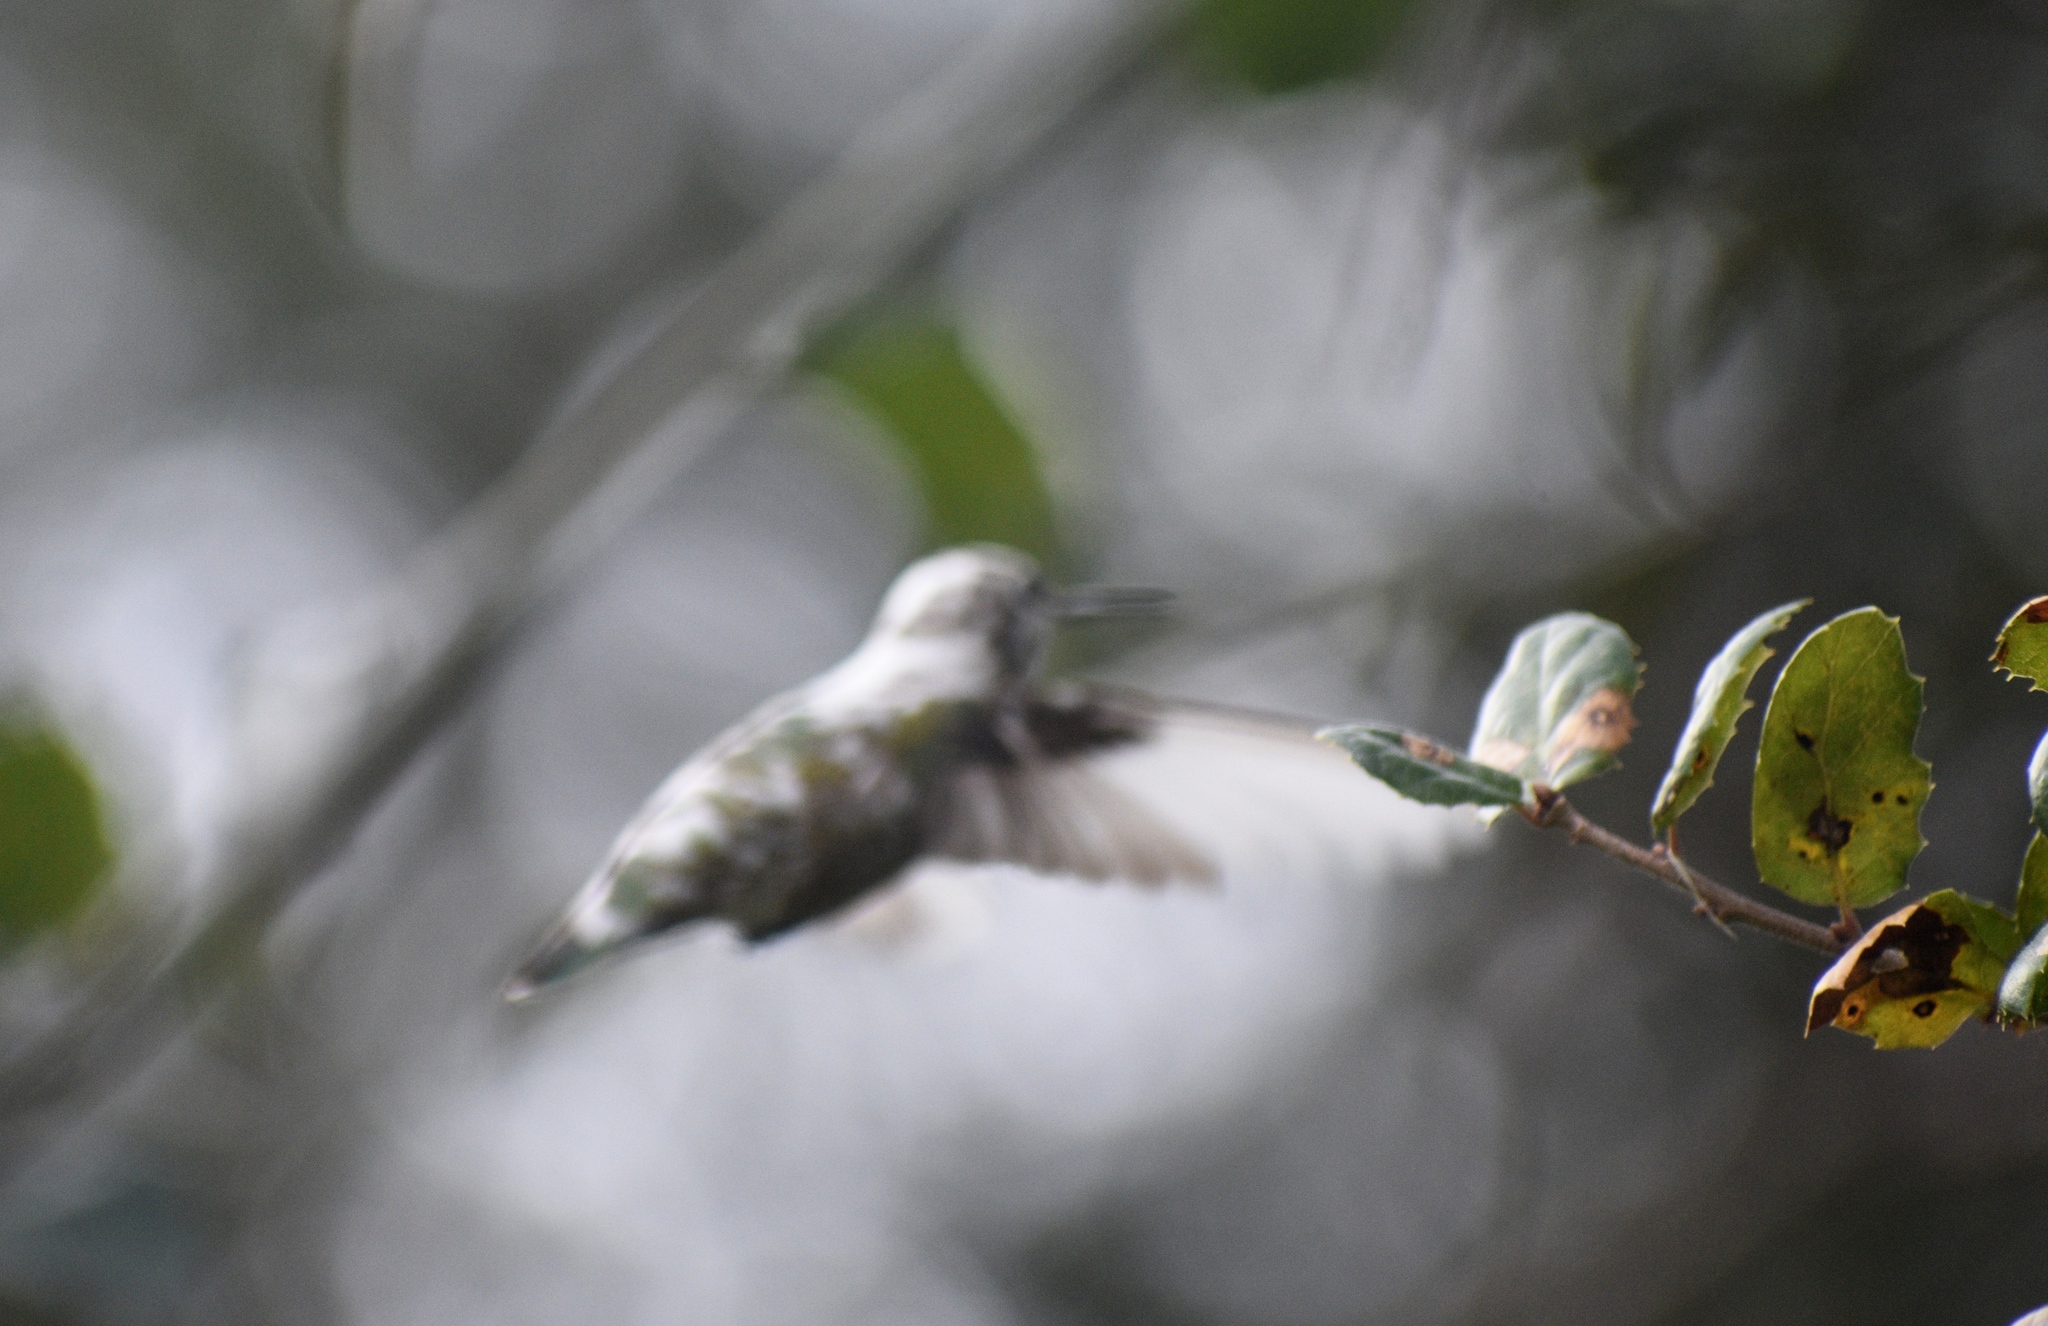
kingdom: Animalia
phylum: Chordata
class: Aves
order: Apodiformes
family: Trochilidae
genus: Calypte
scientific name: Calypte anna
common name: Anna's hummingbird
